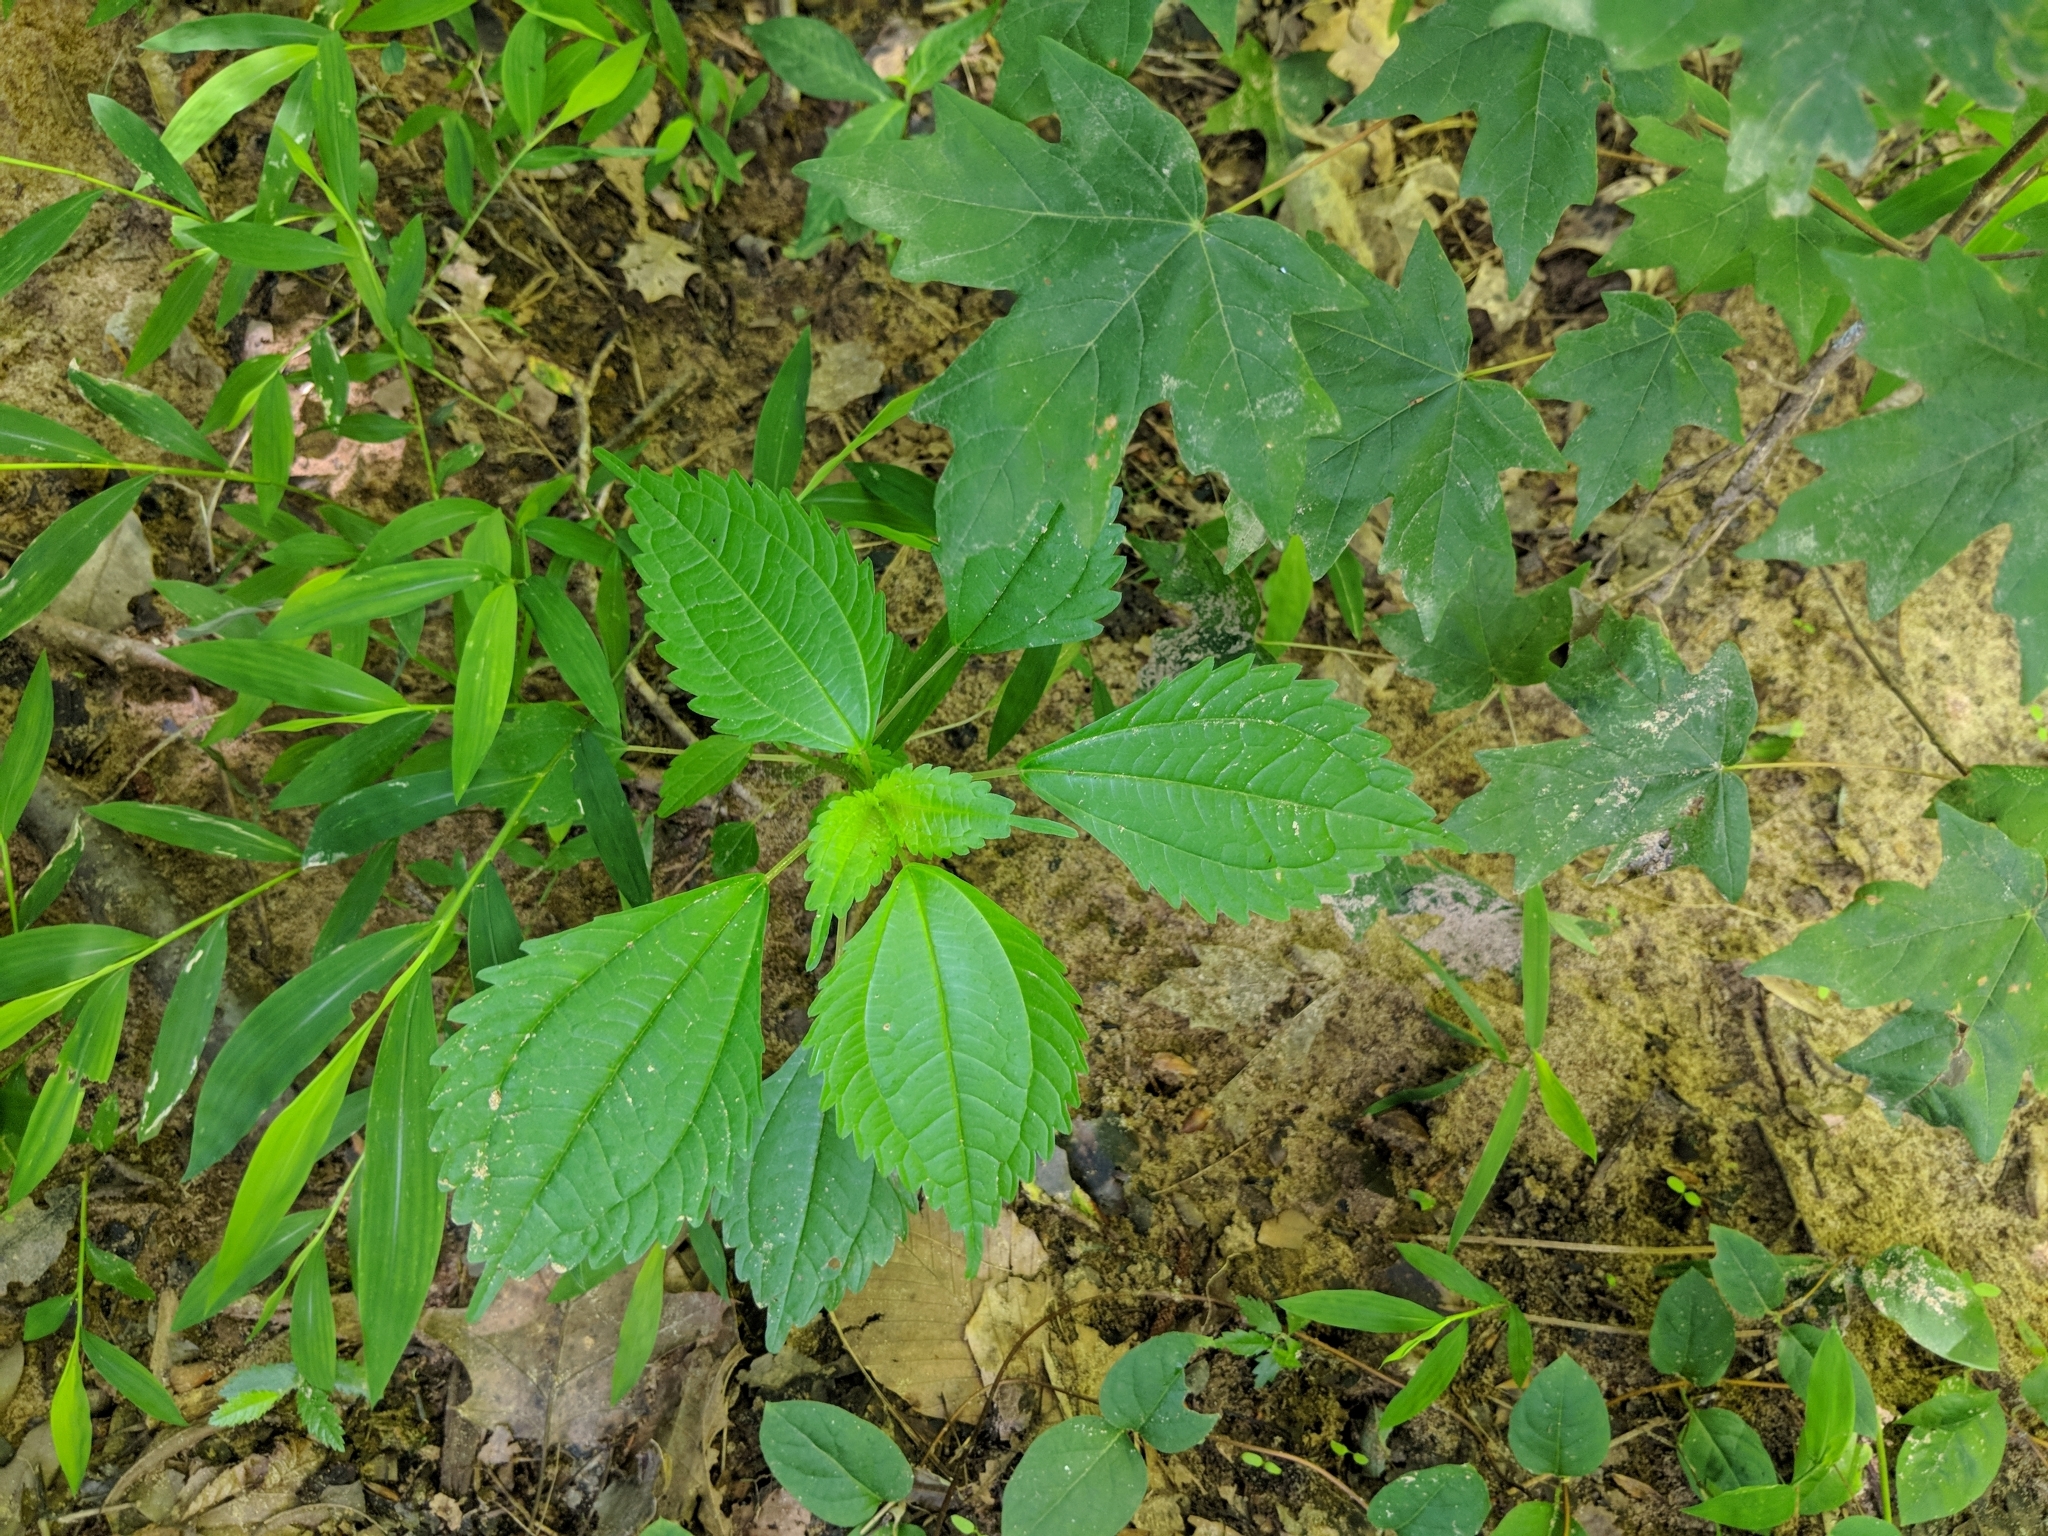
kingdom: Plantae
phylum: Tracheophyta
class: Magnoliopsida
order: Rosales
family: Urticaceae
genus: Pilea
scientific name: Pilea pumila
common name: Clearweed
